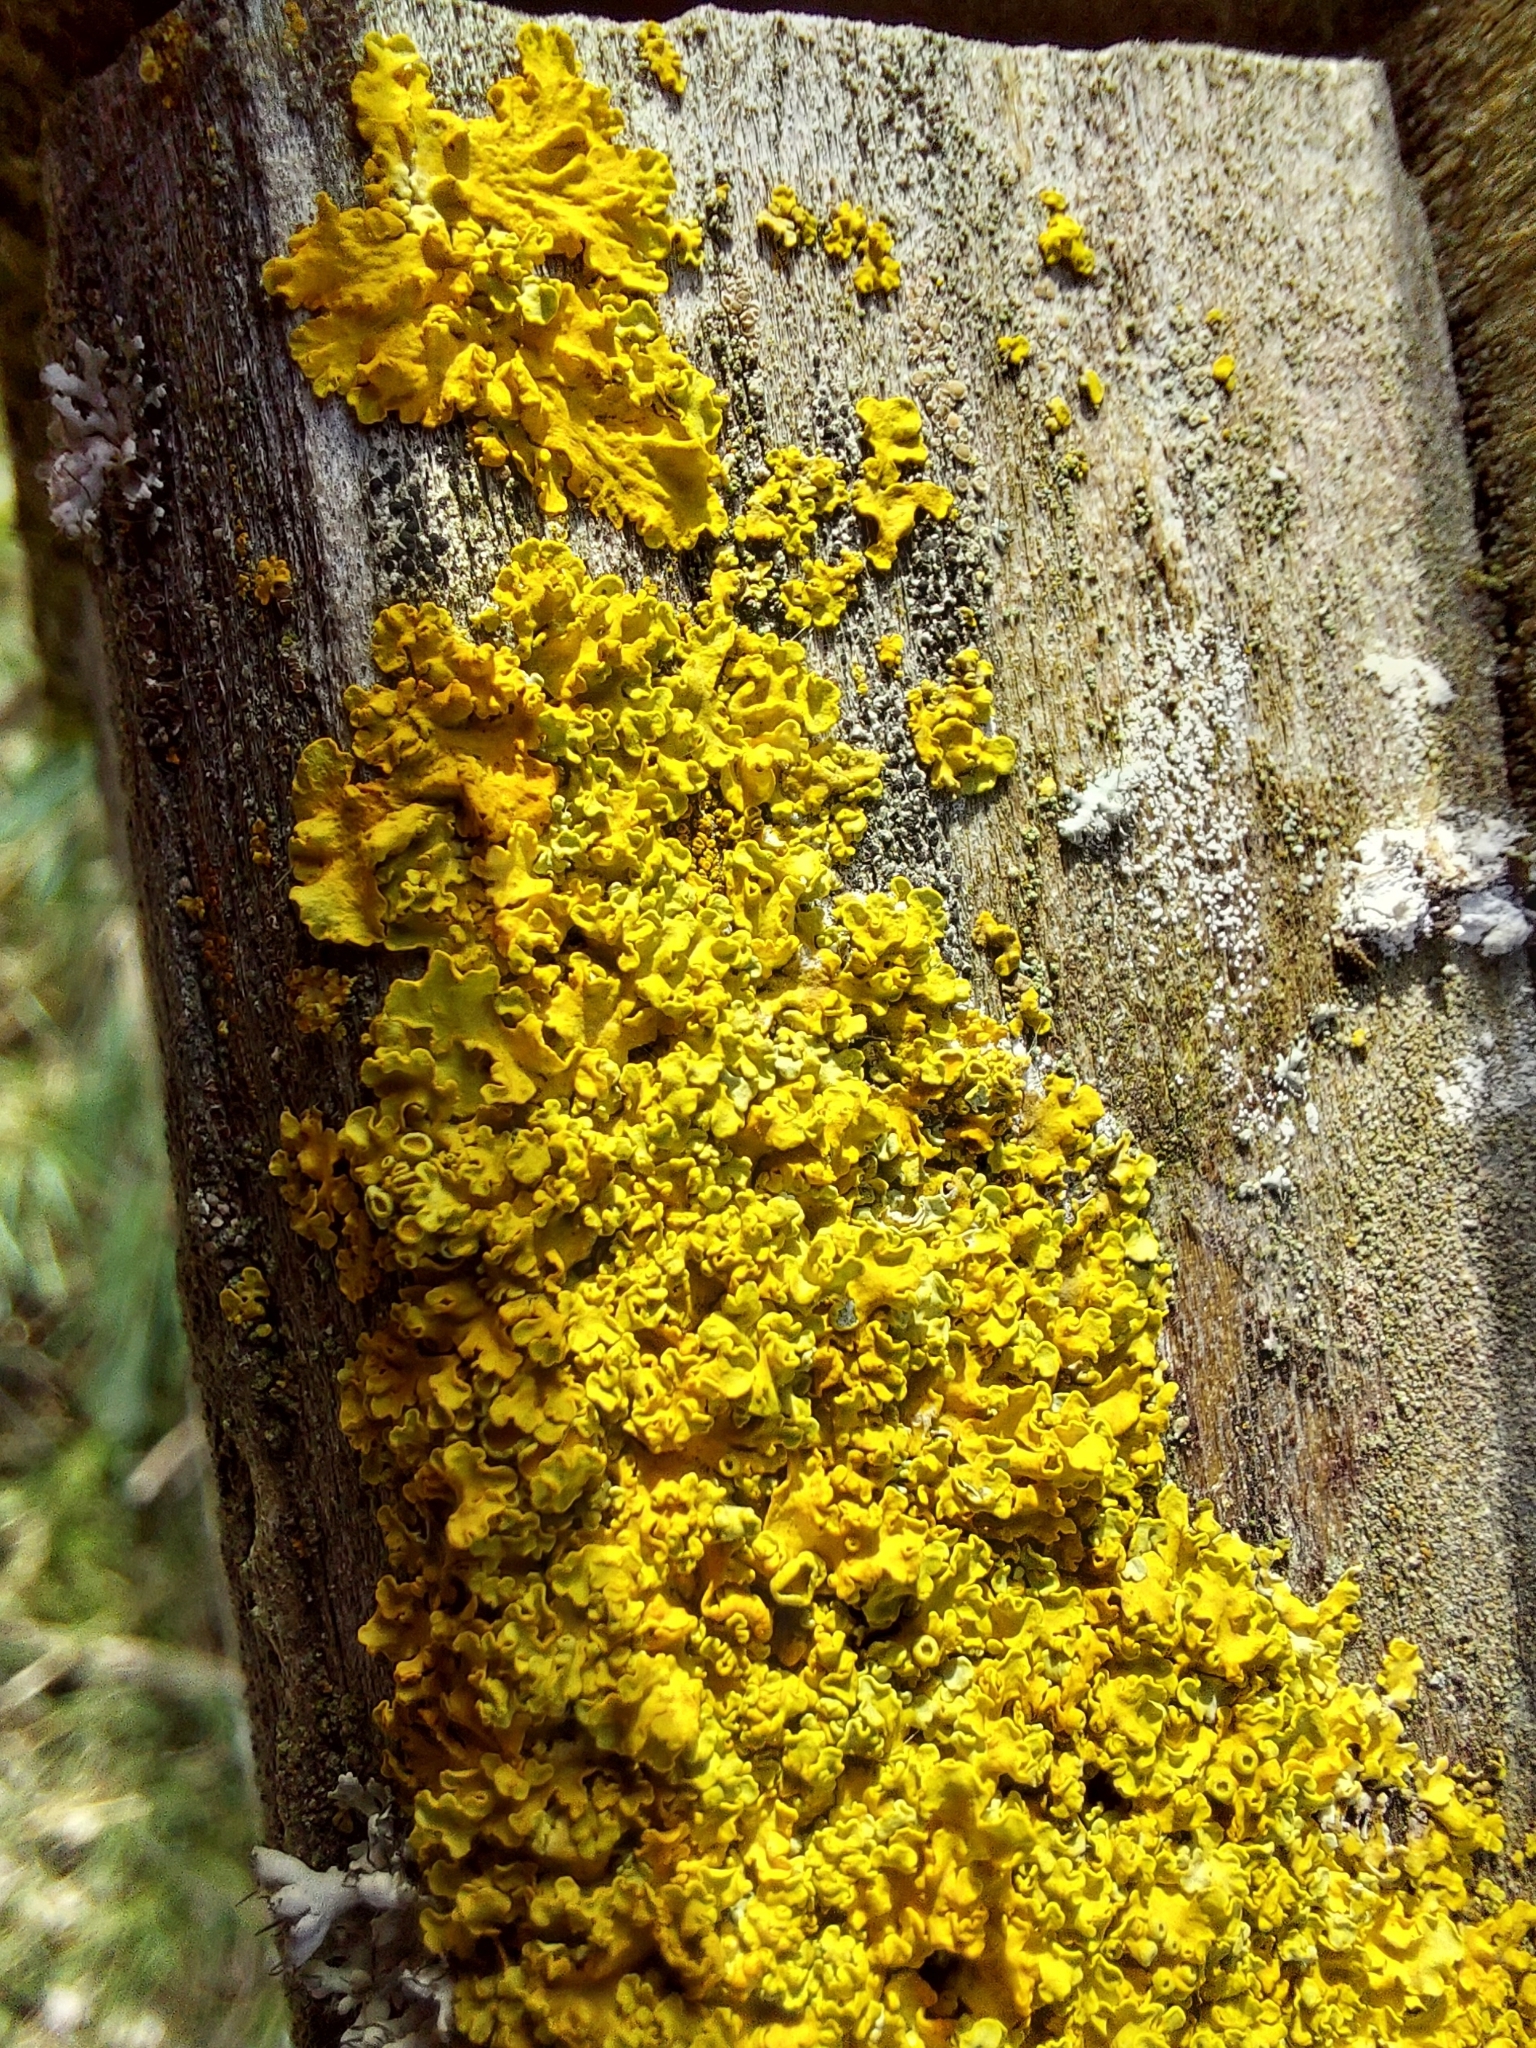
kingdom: Fungi
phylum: Ascomycota
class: Lecanoromycetes
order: Teloschistales
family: Teloschistaceae
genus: Xanthoria
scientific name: Xanthoria parietina
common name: Common orange lichen
